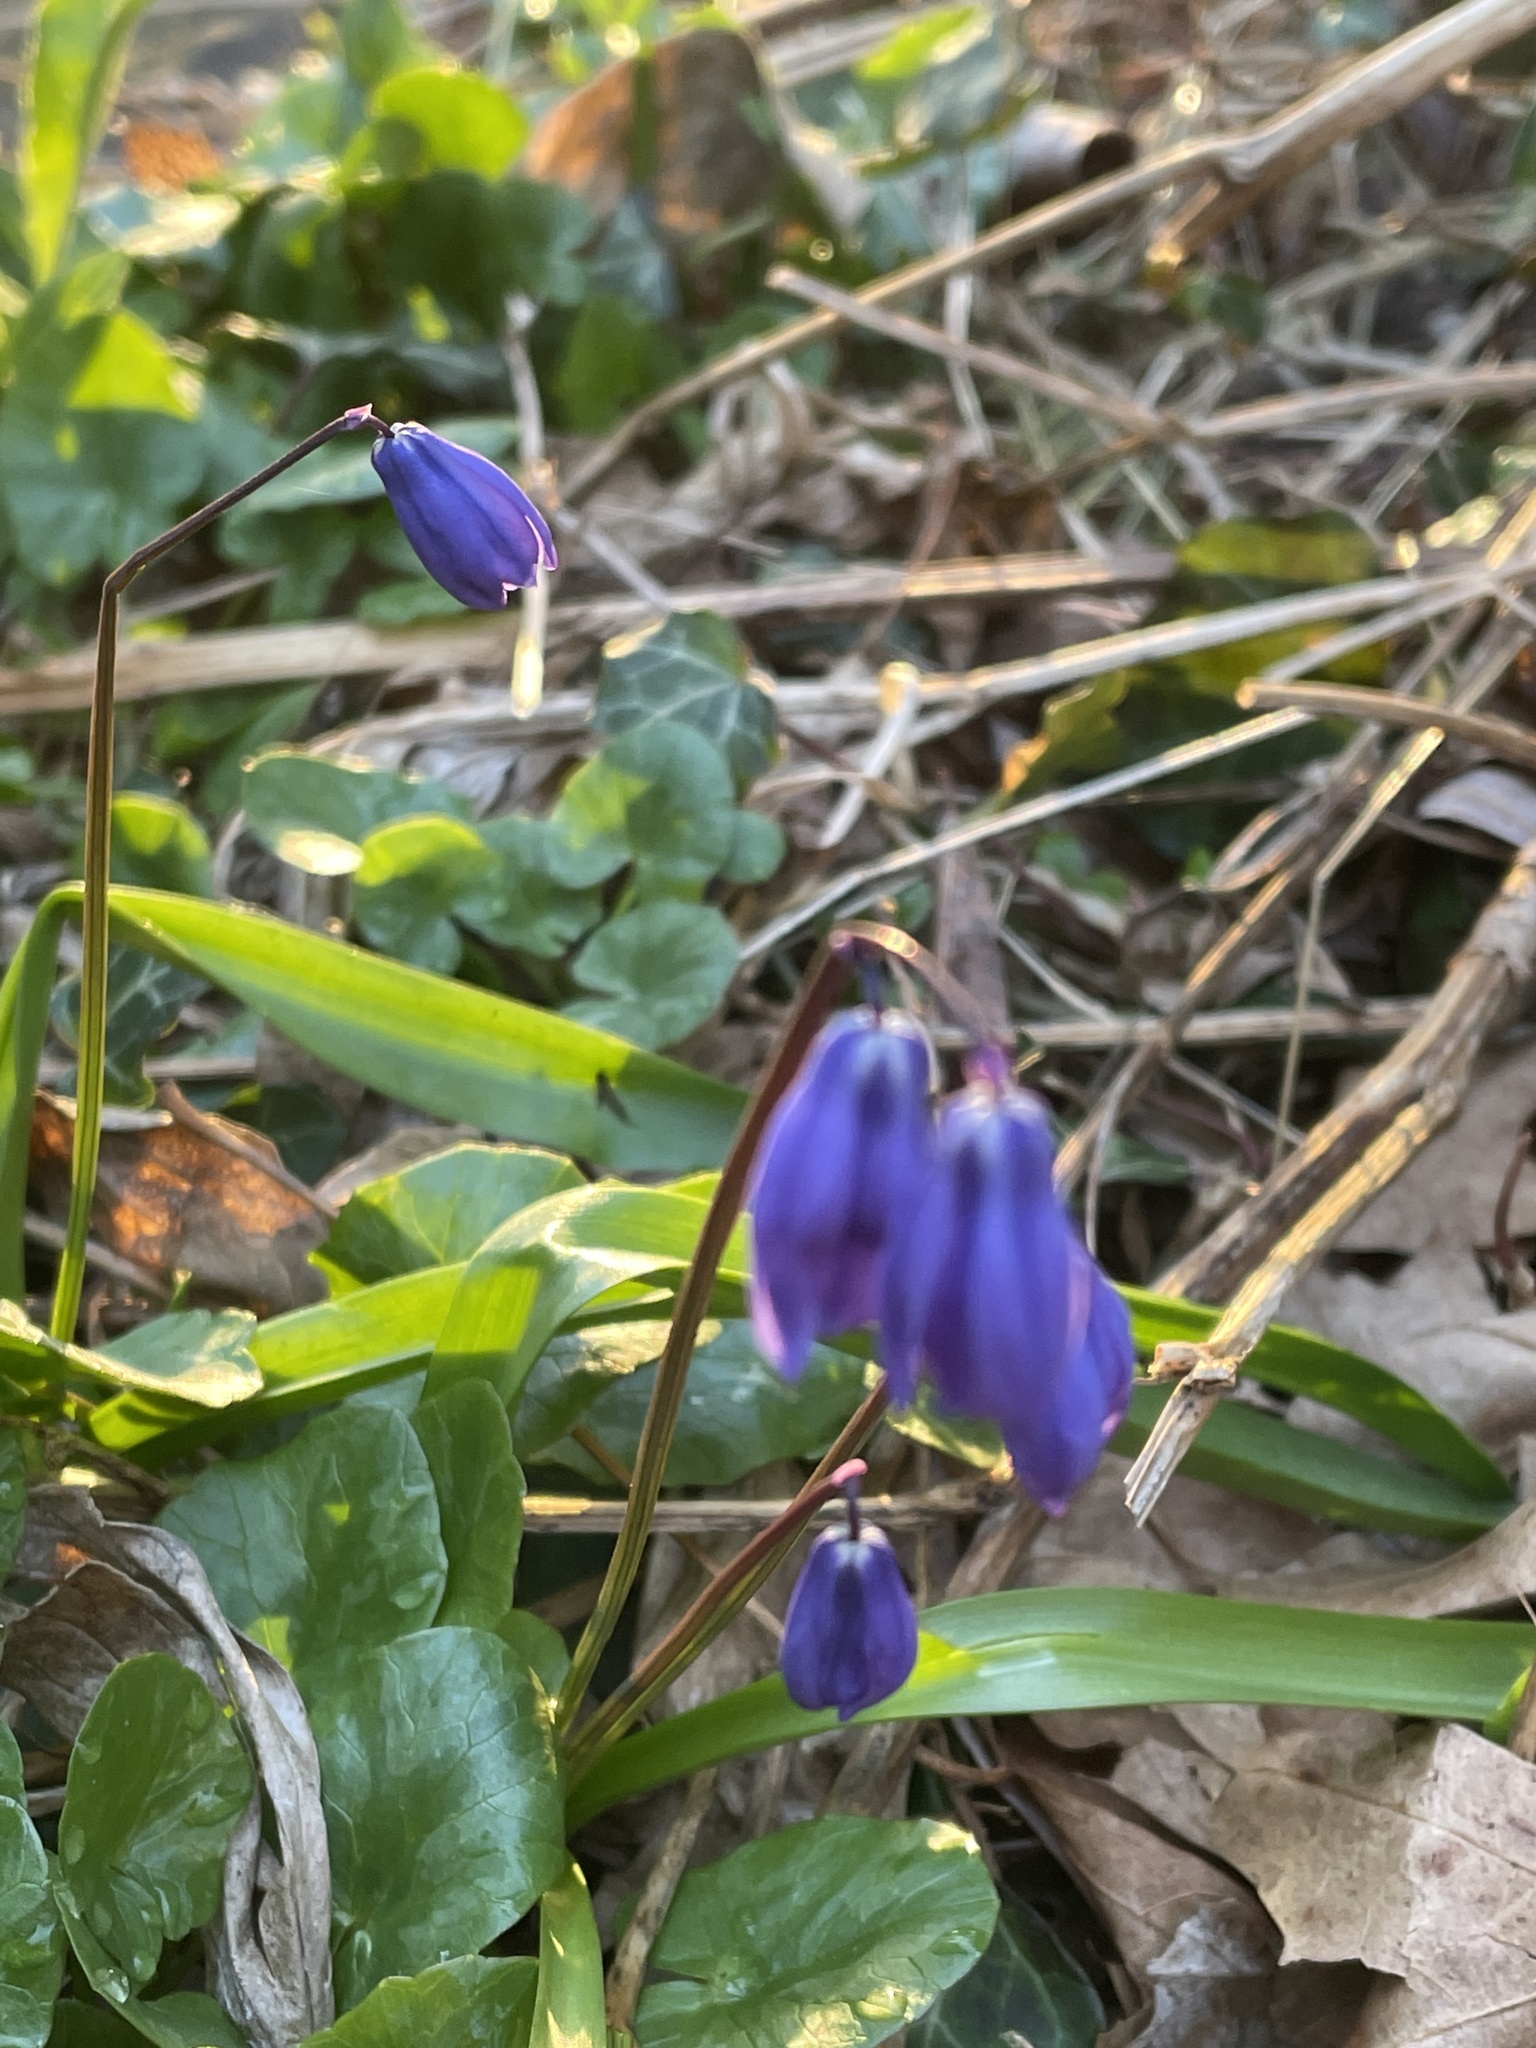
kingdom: Plantae
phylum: Tracheophyta
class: Liliopsida
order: Asparagales
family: Asparagaceae
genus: Scilla
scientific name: Scilla siberica
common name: Siberian squill
